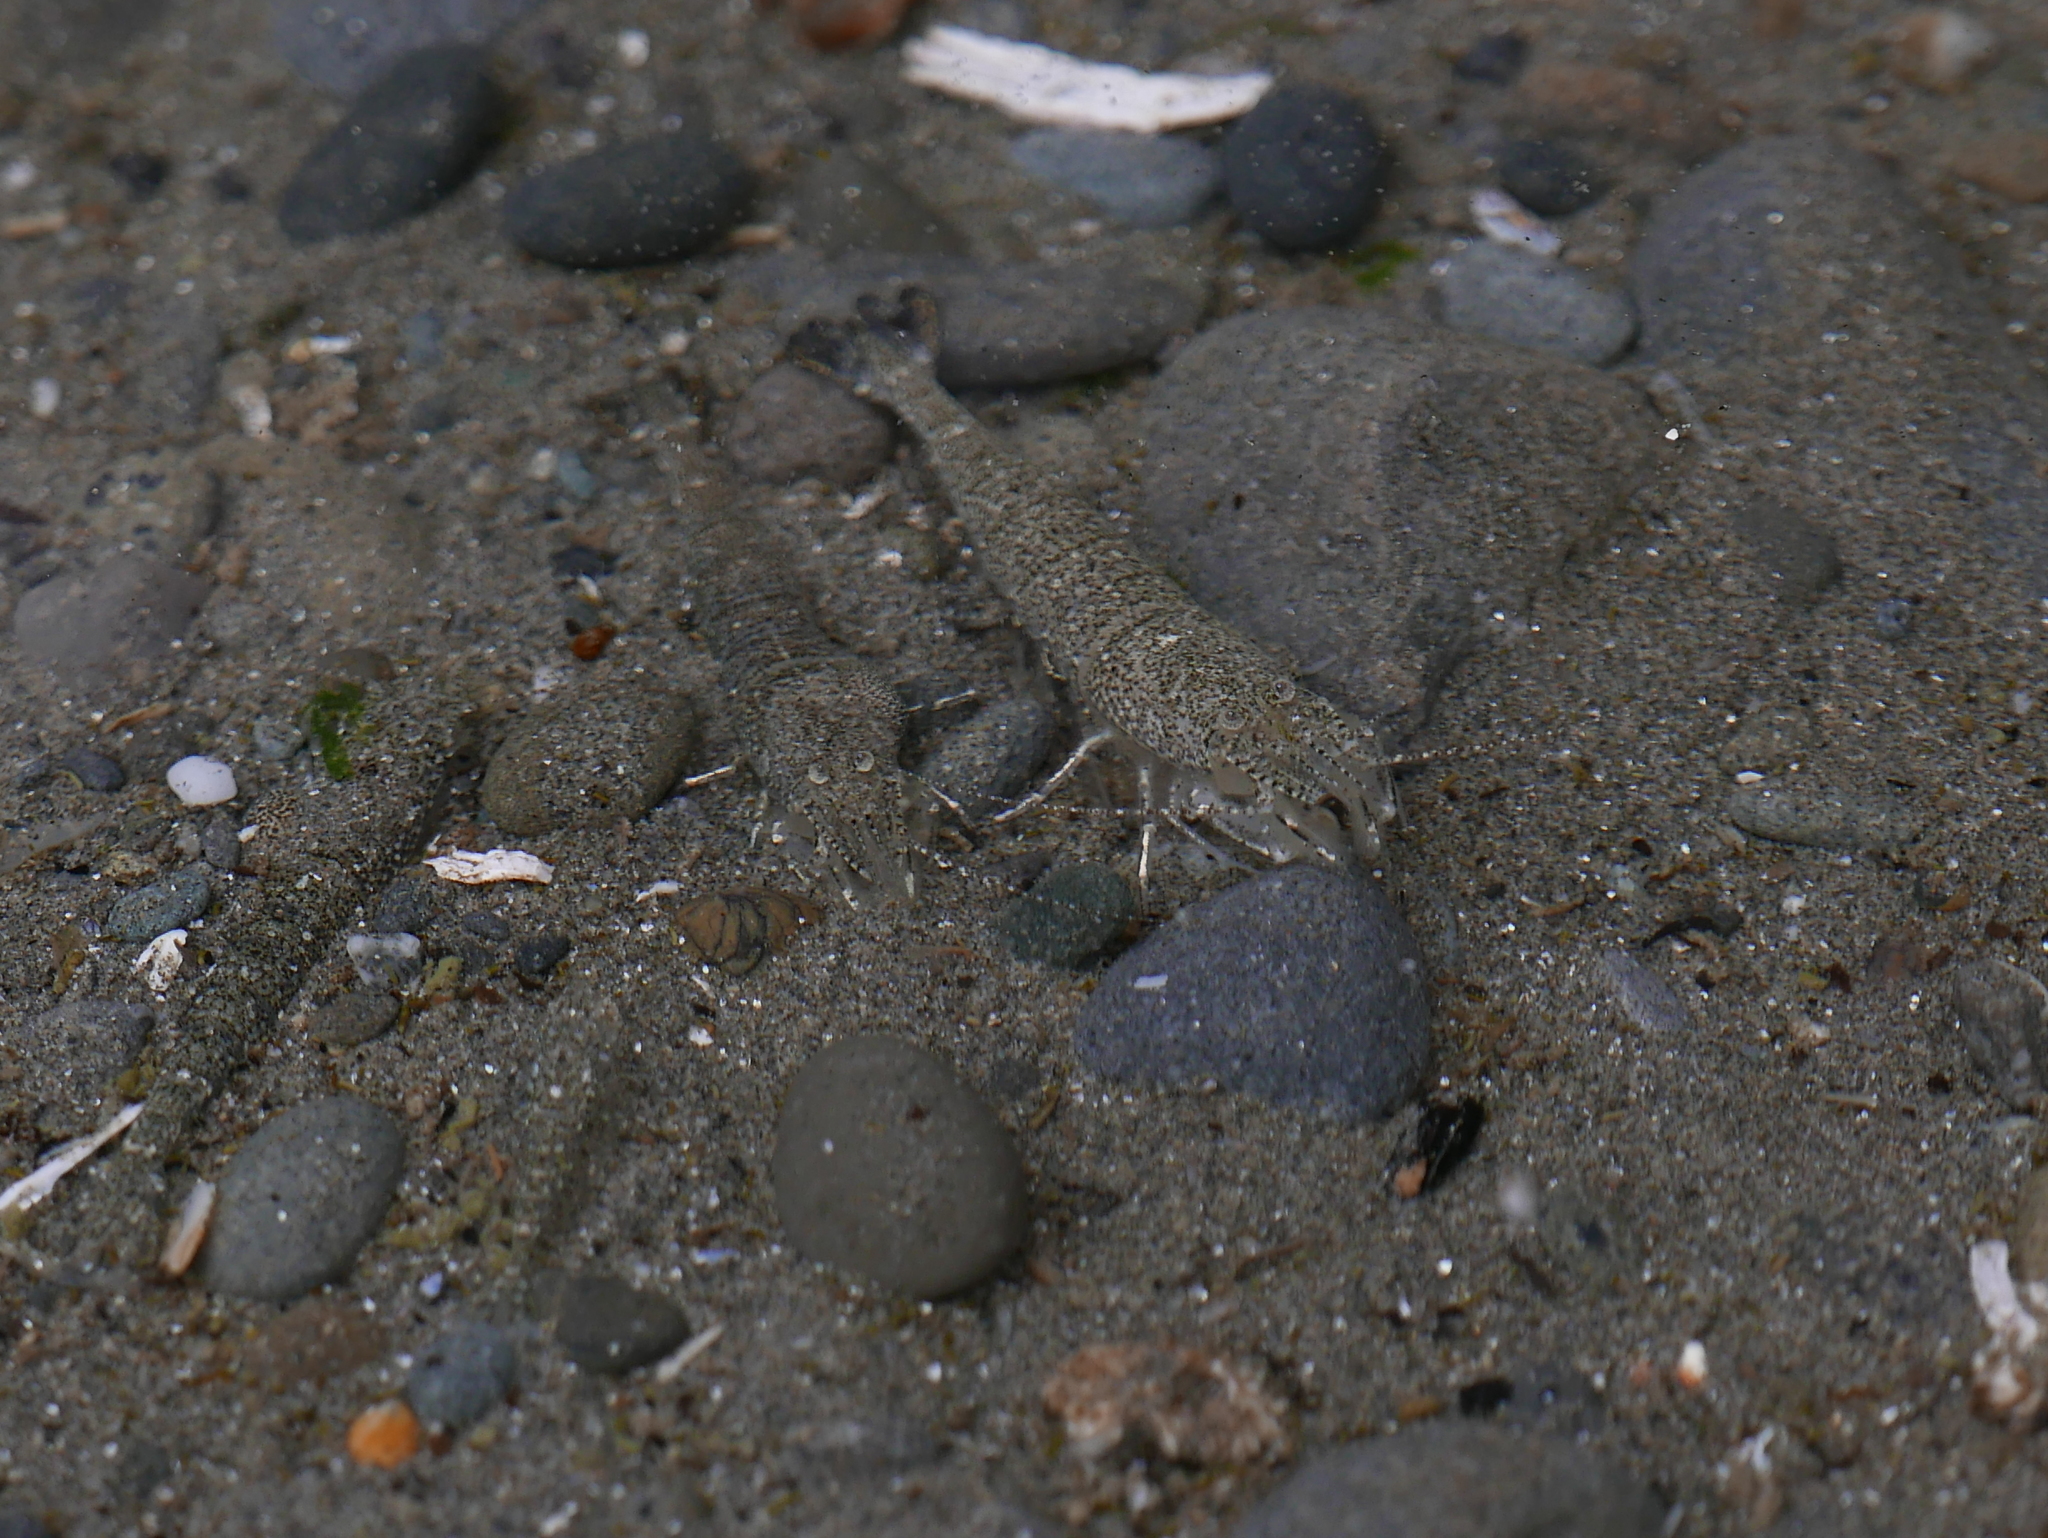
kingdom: Animalia
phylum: Arthropoda
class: Malacostraca
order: Decapoda
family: Crangonidae
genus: Lissocrangon
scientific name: Lissocrangon stylirostris
